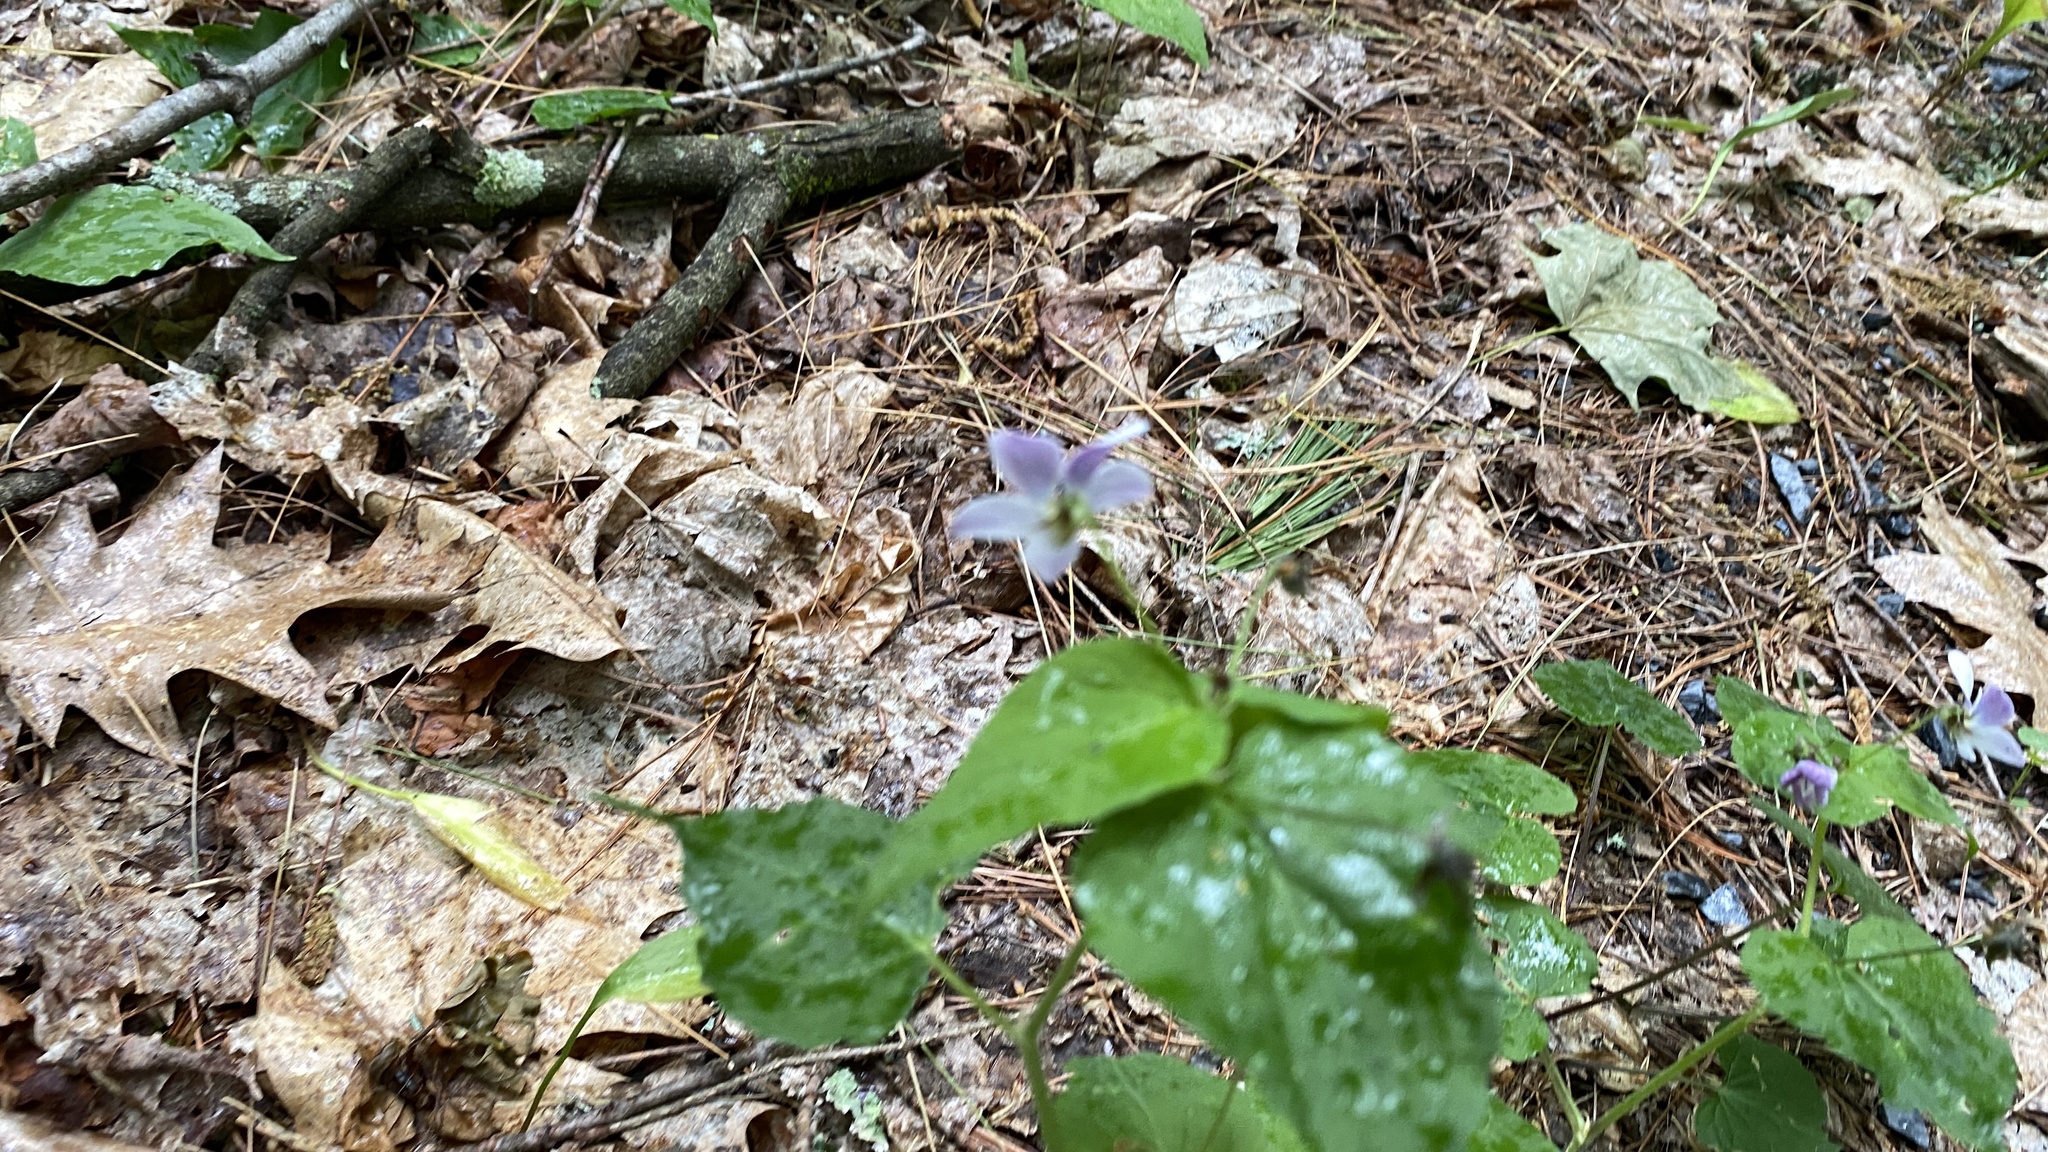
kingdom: Plantae
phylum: Tracheophyta
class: Magnoliopsida
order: Malpighiales
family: Violaceae
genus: Viola
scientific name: Viola canadensis
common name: Canada violet
